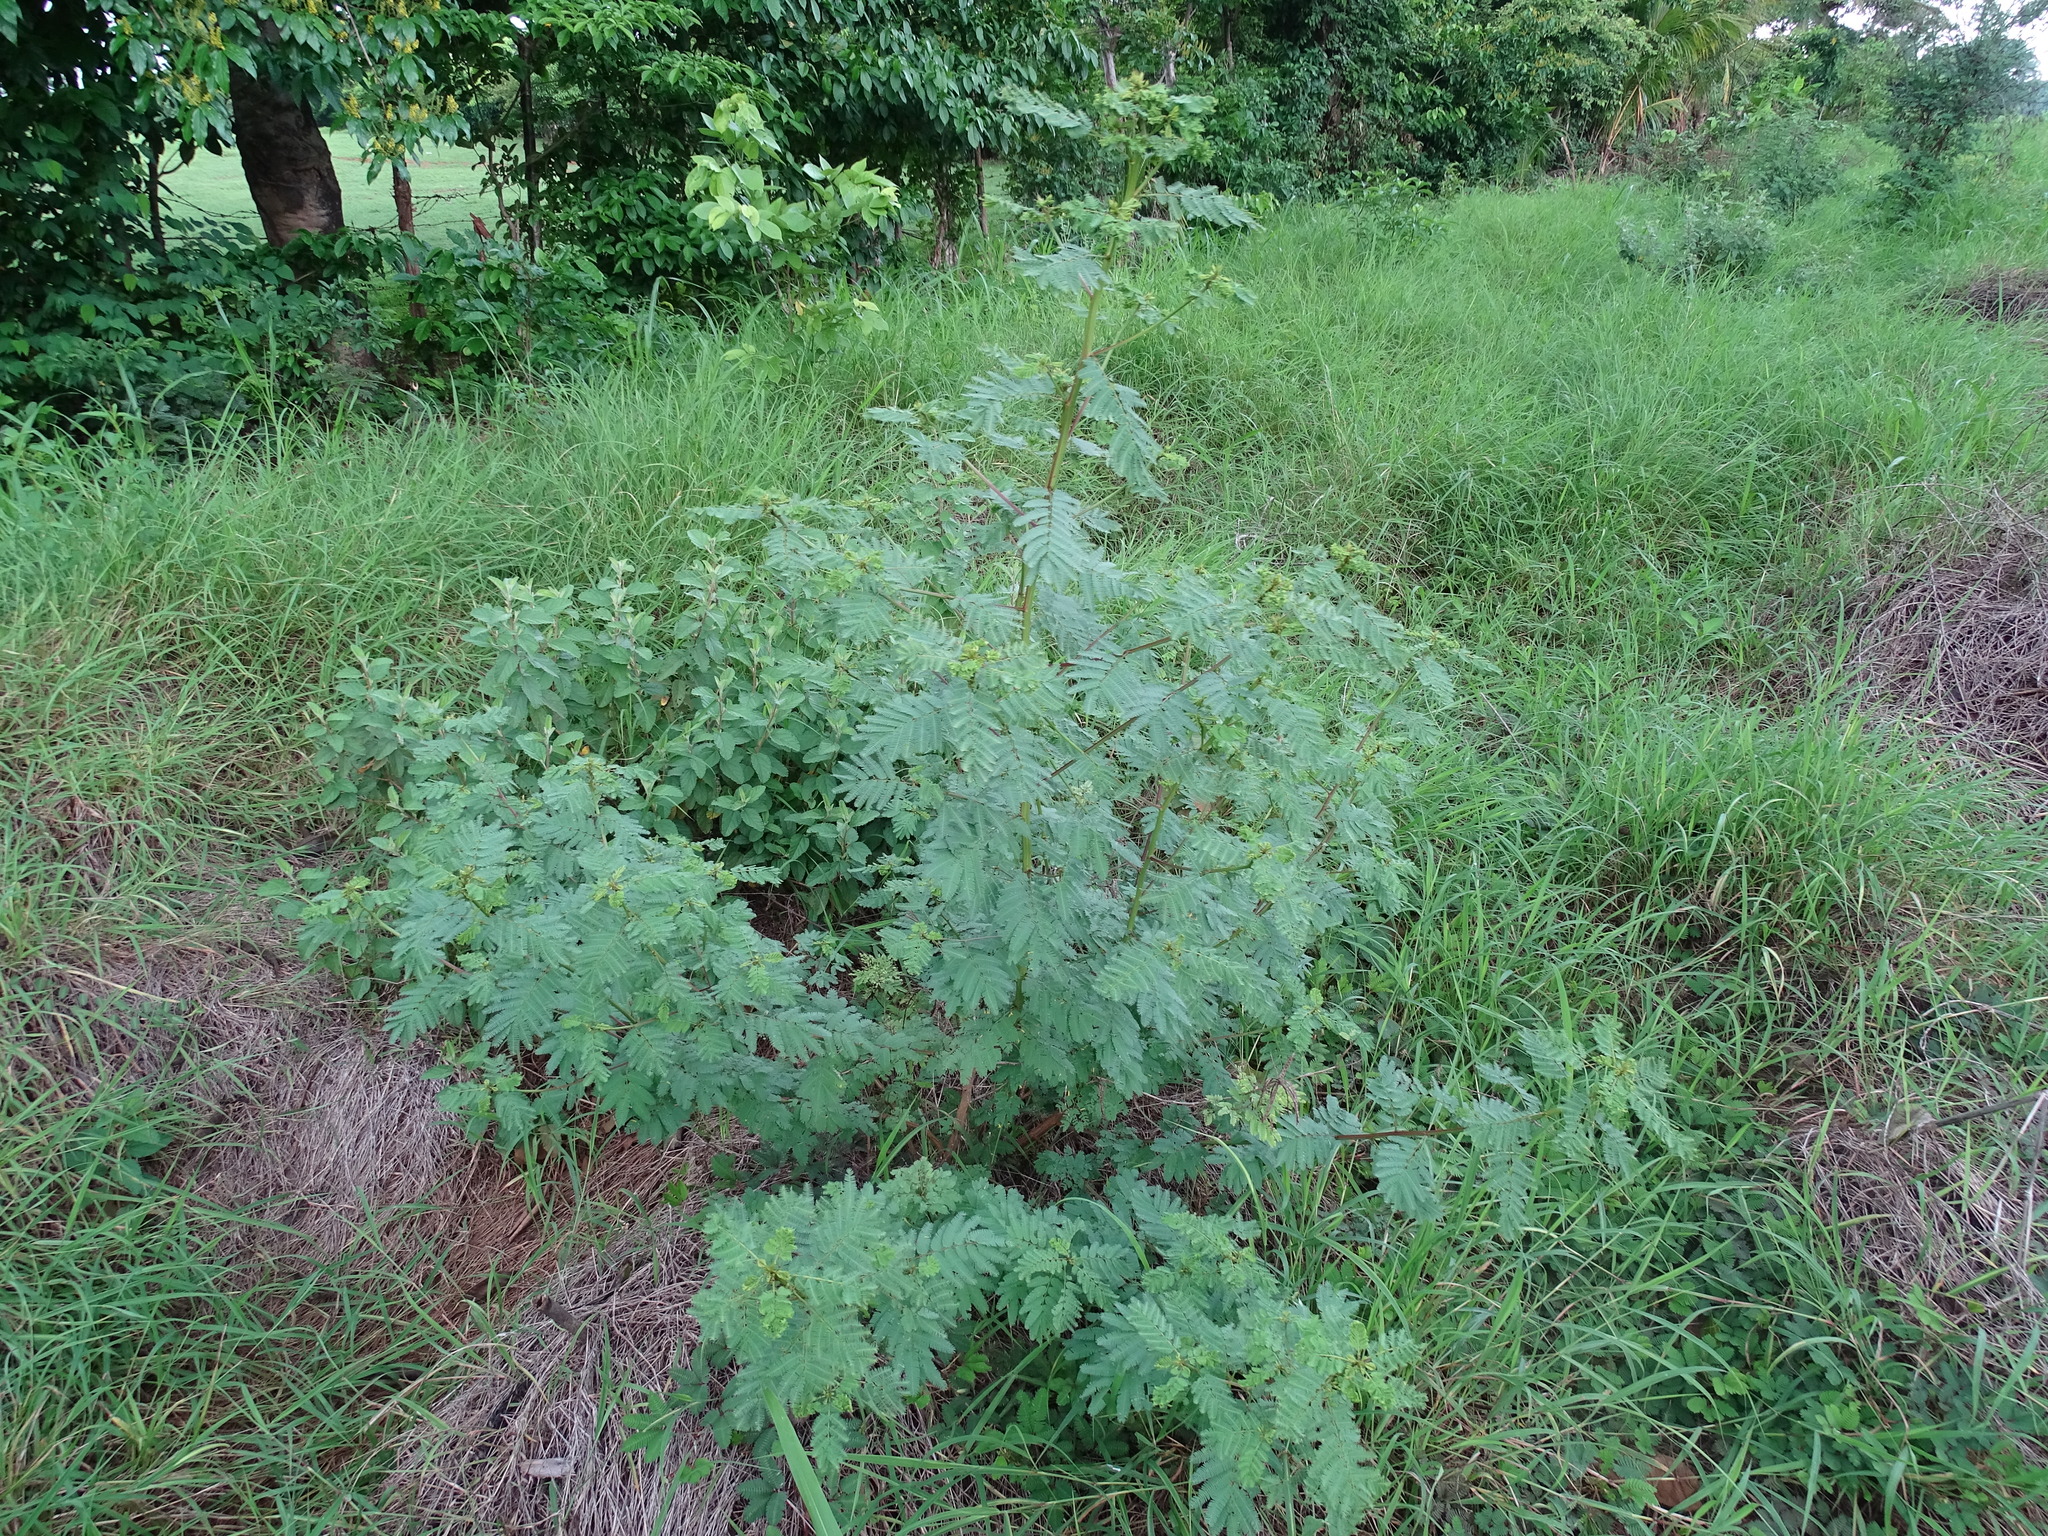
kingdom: Plantae
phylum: Tracheophyta
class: Magnoliopsida
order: Fabales
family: Fabaceae
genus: Desmanthus
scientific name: Desmanthus virgatus
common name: Wild tantan
